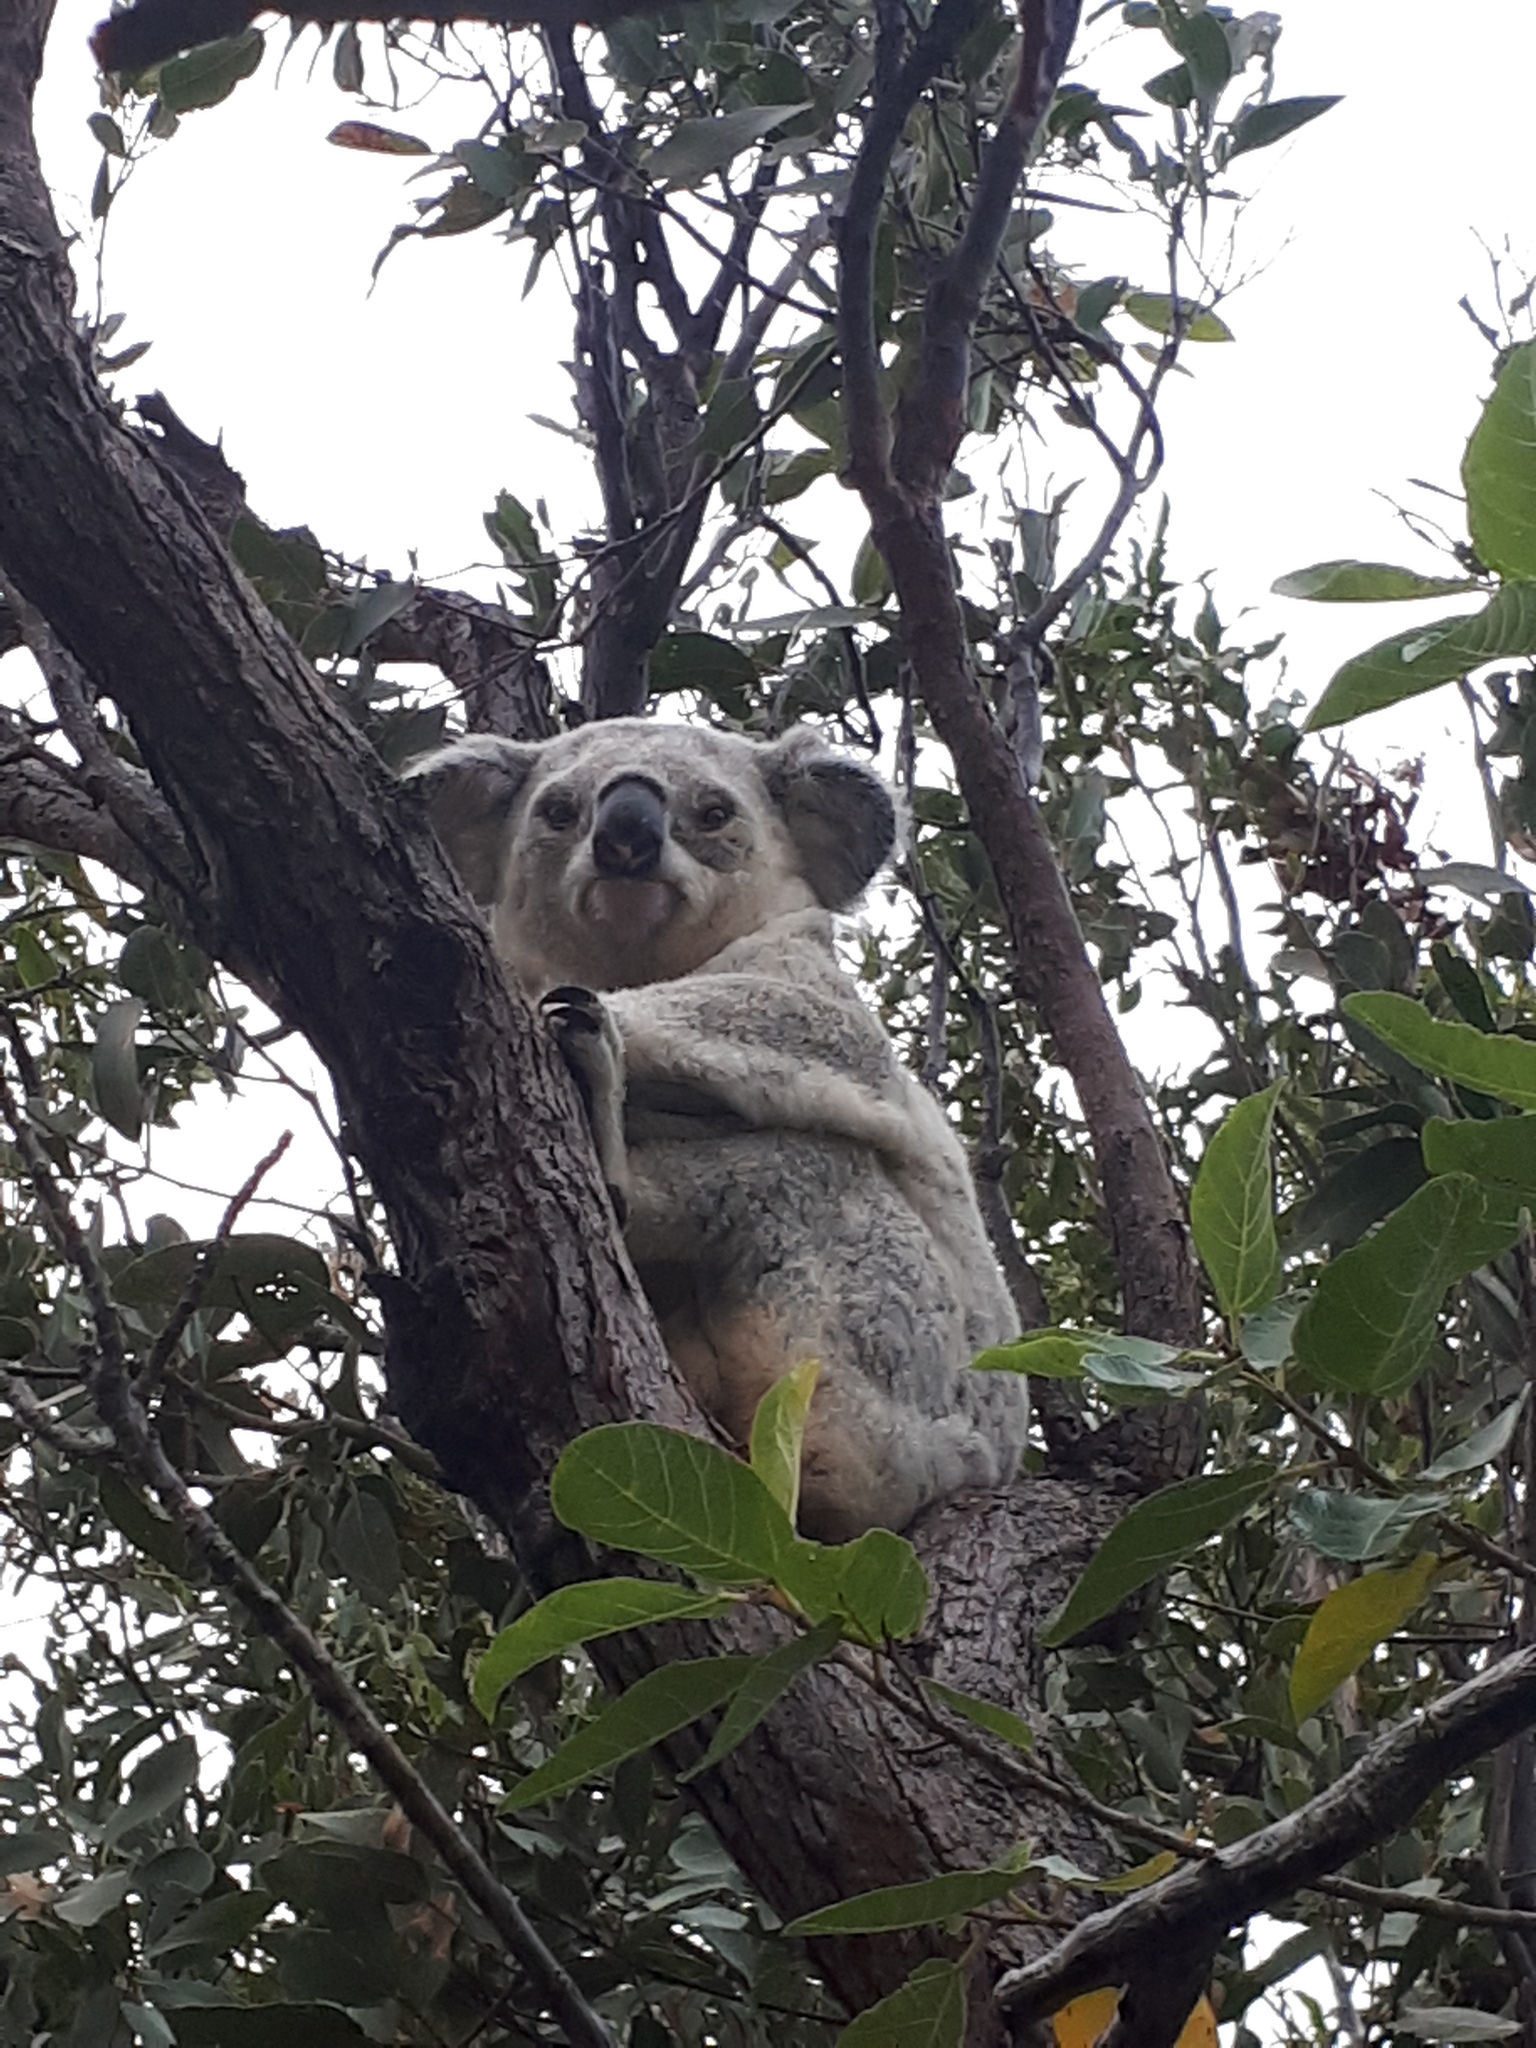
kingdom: Animalia
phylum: Chordata
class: Mammalia
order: Diprotodontia
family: Phascolarctidae
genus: Phascolarctos
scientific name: Phascolarctos cinereus
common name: Koala
